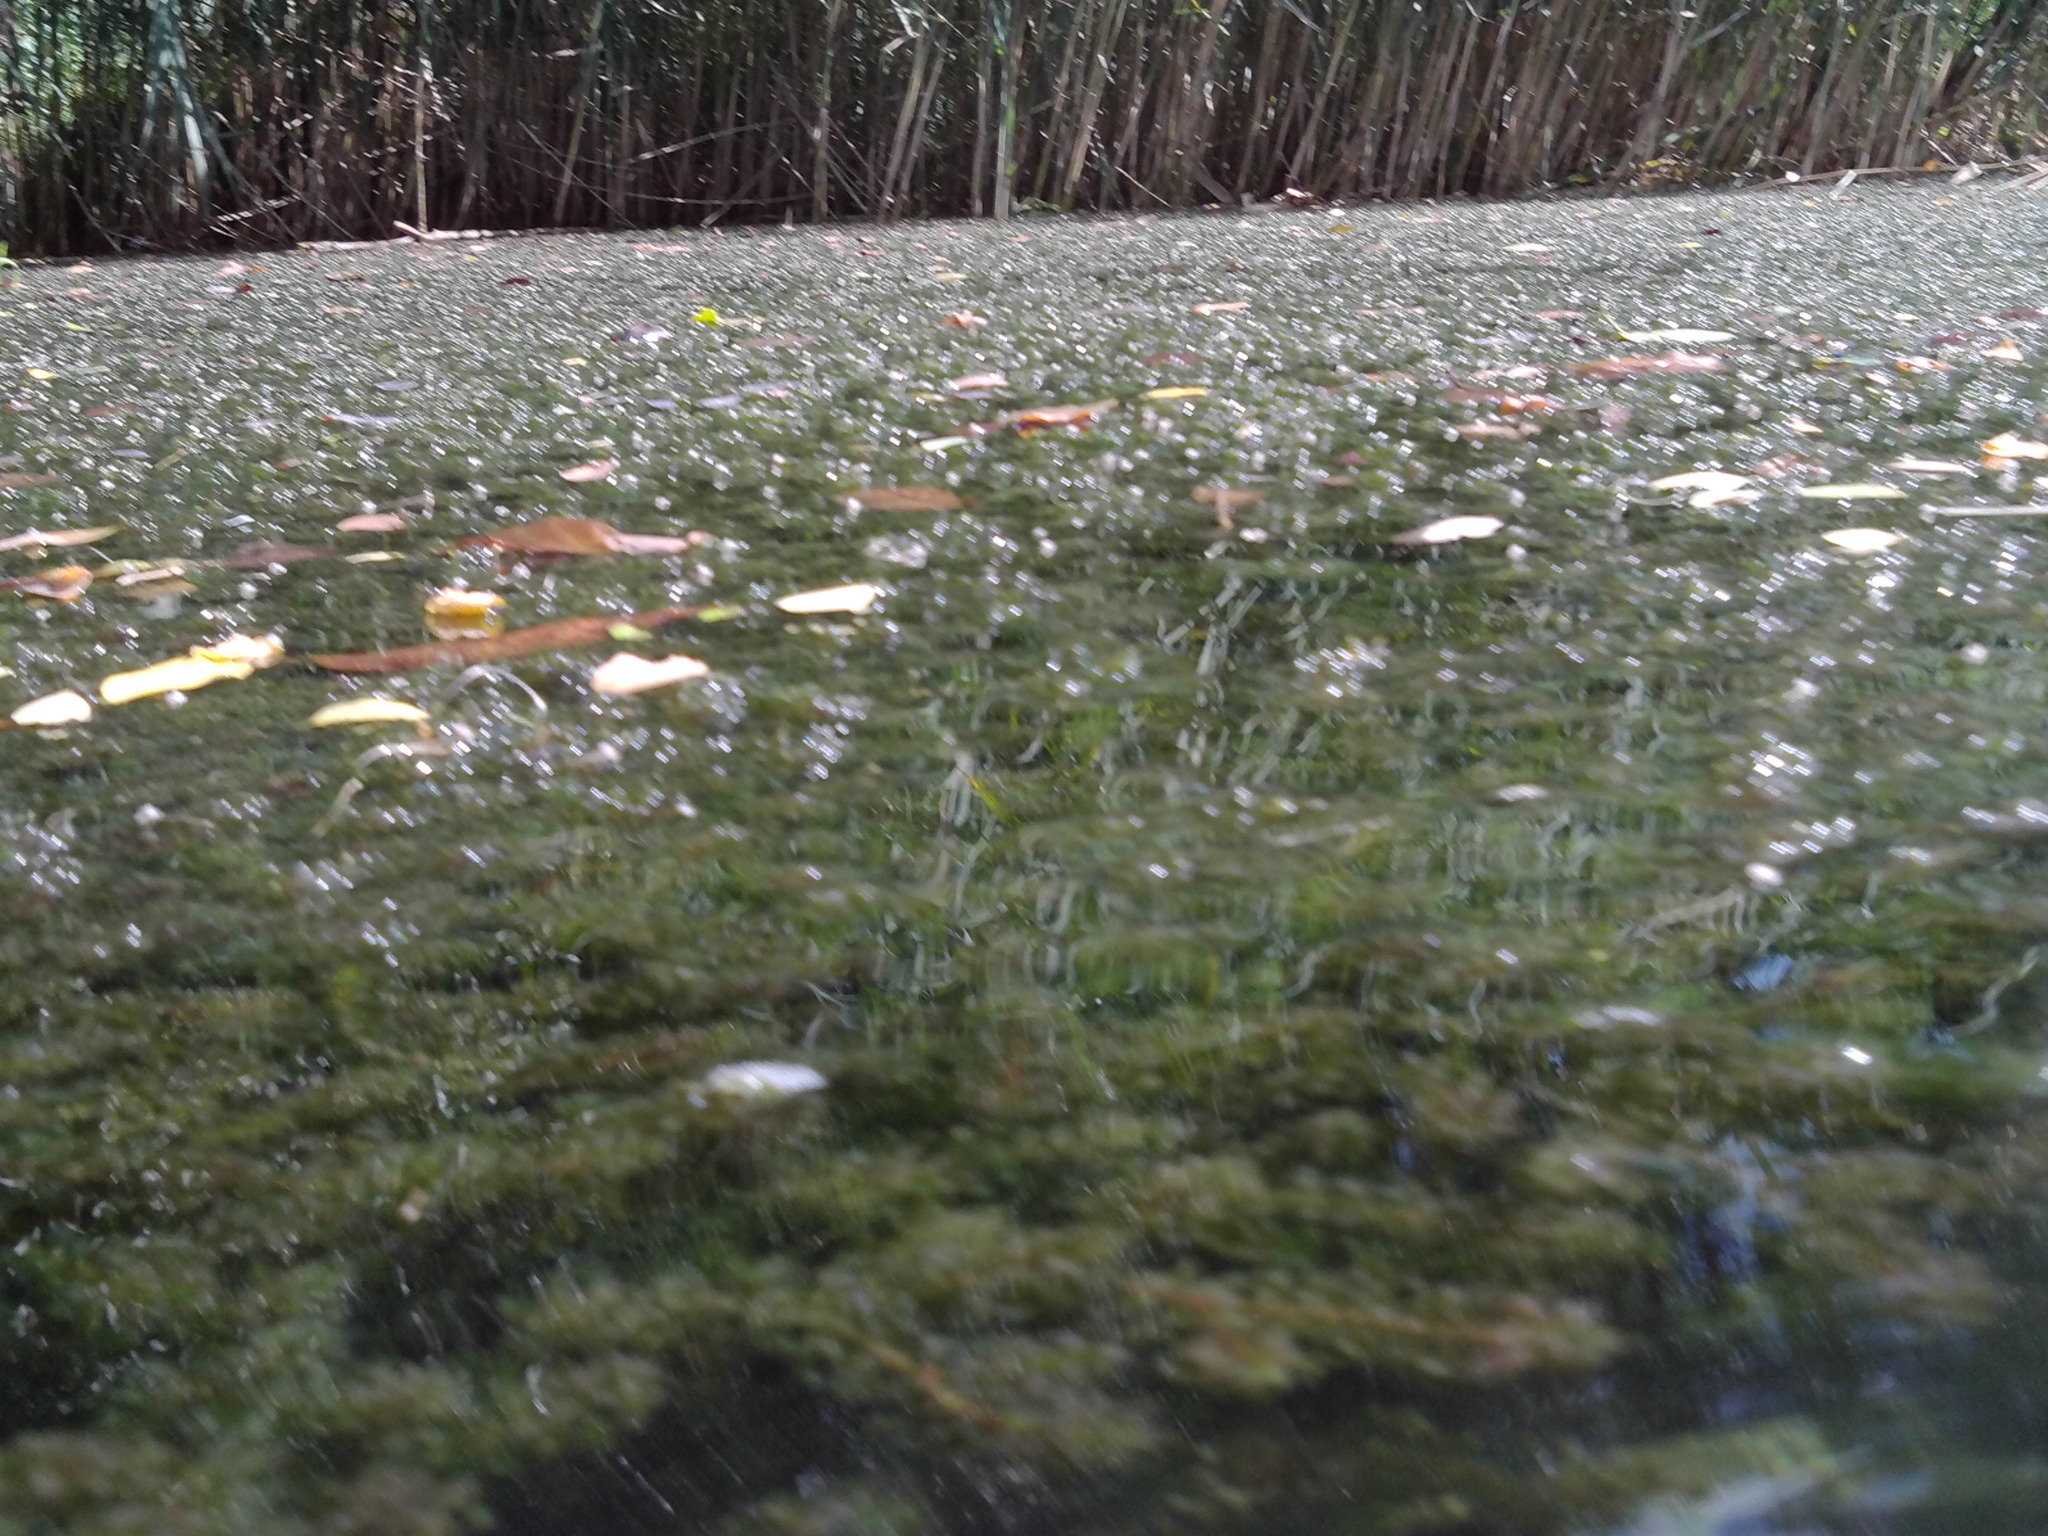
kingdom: Plantae
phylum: Tracheophyta
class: Liliopsida
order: Alismatales
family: Hydrocharitaceae
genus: Elodea
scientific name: Elodea canadensis
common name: Canadian waterweed
